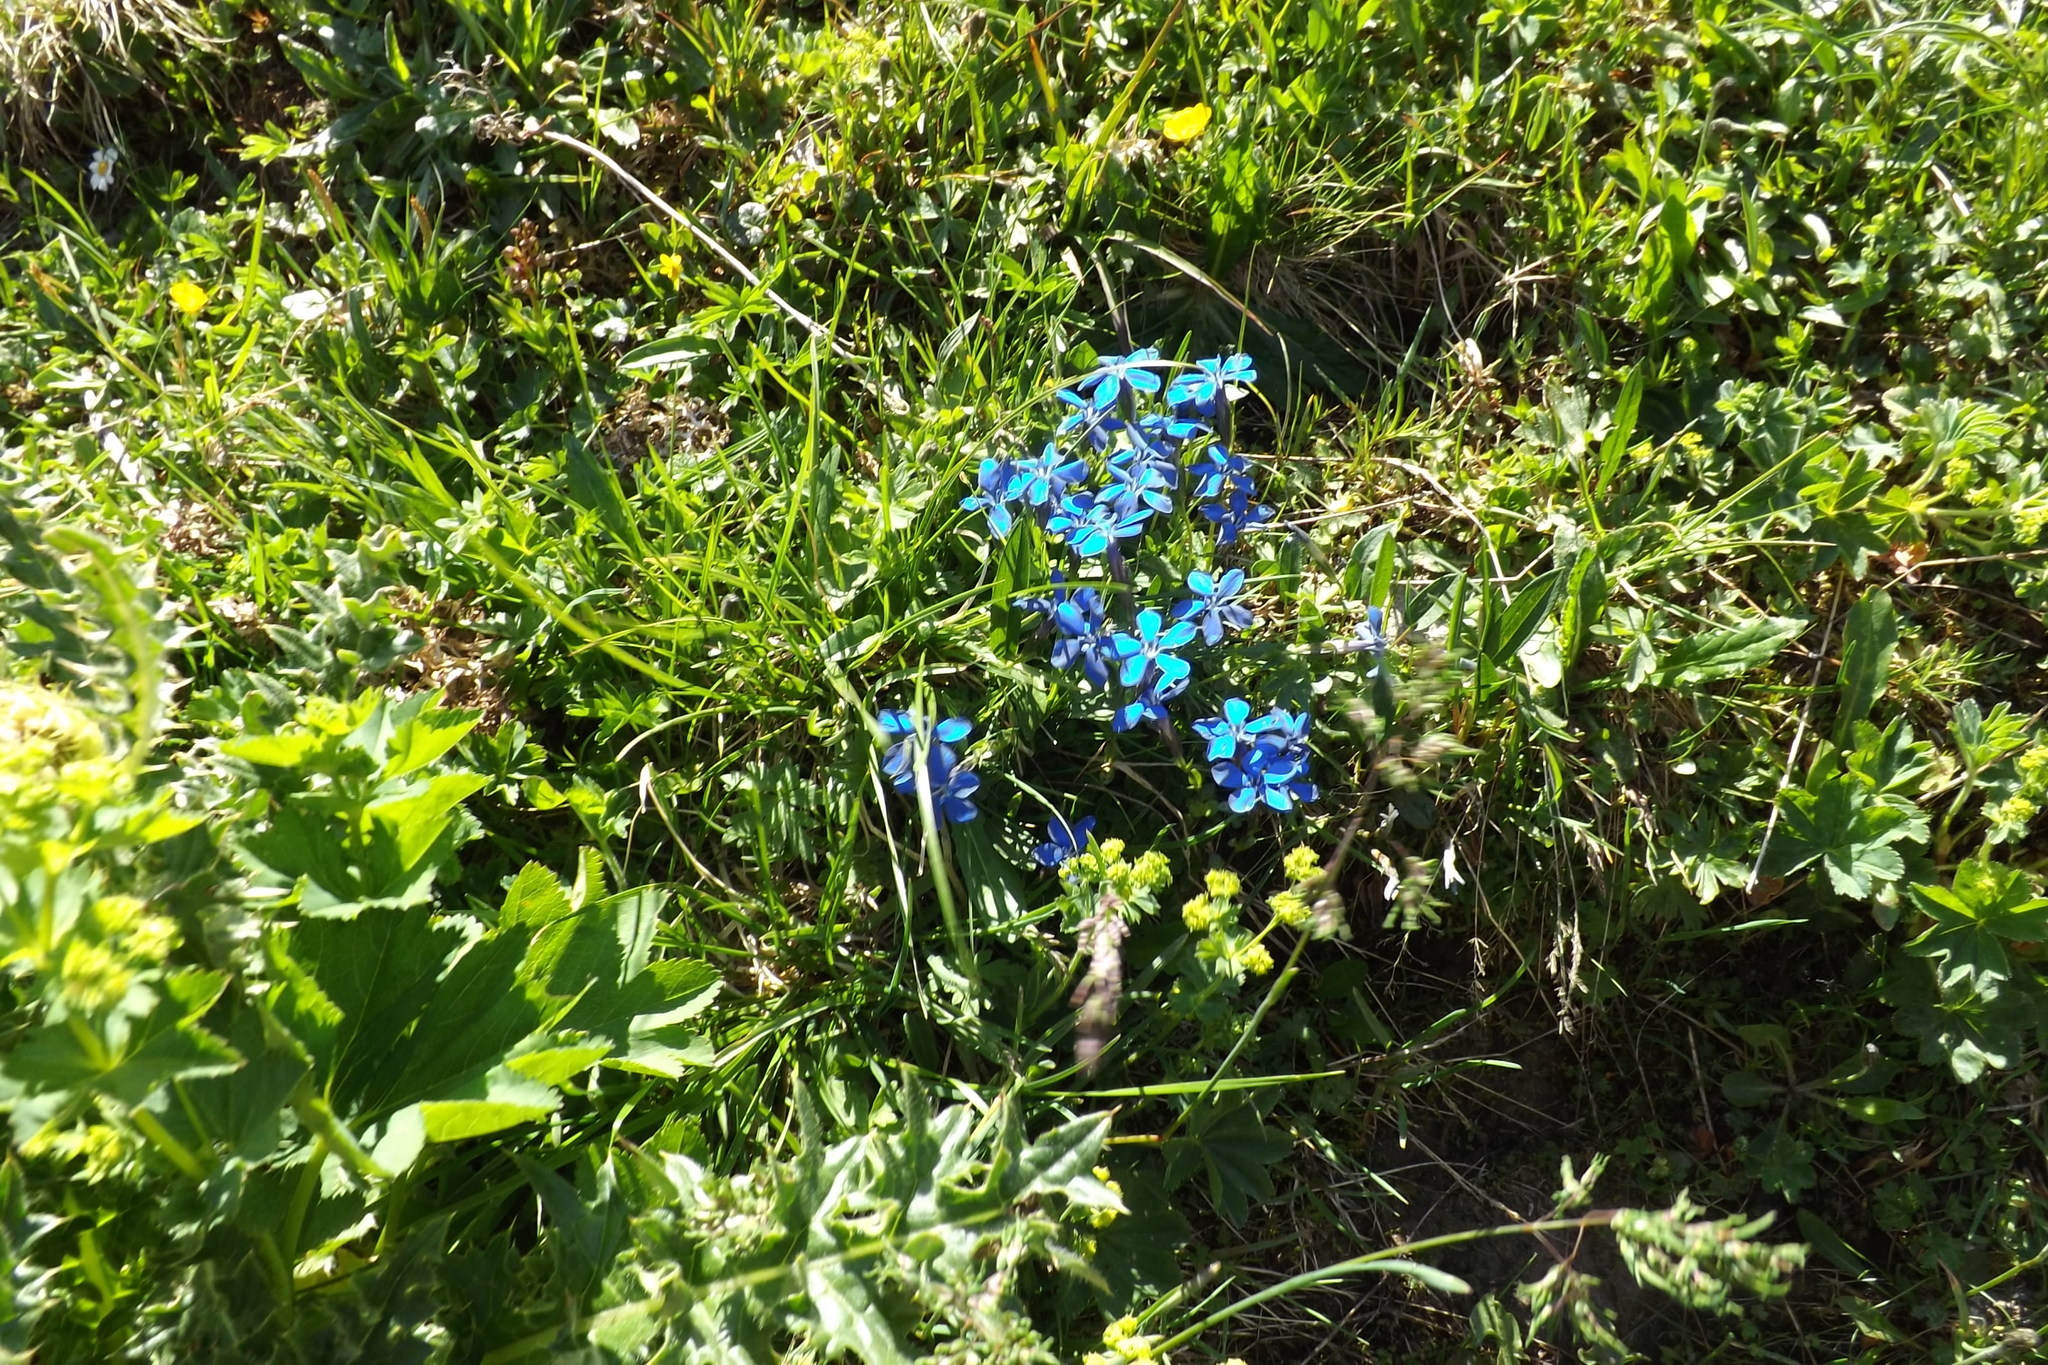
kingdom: Plantae
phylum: Tracheophyta
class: Magnoliopsida
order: Gentianales
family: Gentianaceae
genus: Gentiana
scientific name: Gentiana bavarica
